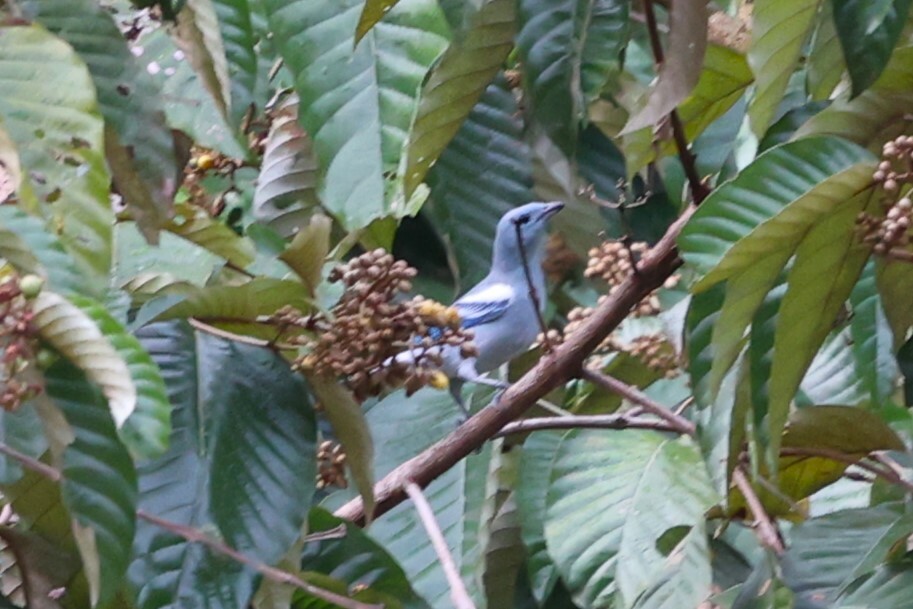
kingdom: Animalia
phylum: Chordata
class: Aves
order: Passeriformes
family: Thraupidae
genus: Thraupis
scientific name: Thraupis episcopus
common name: Blue-grey tanager
